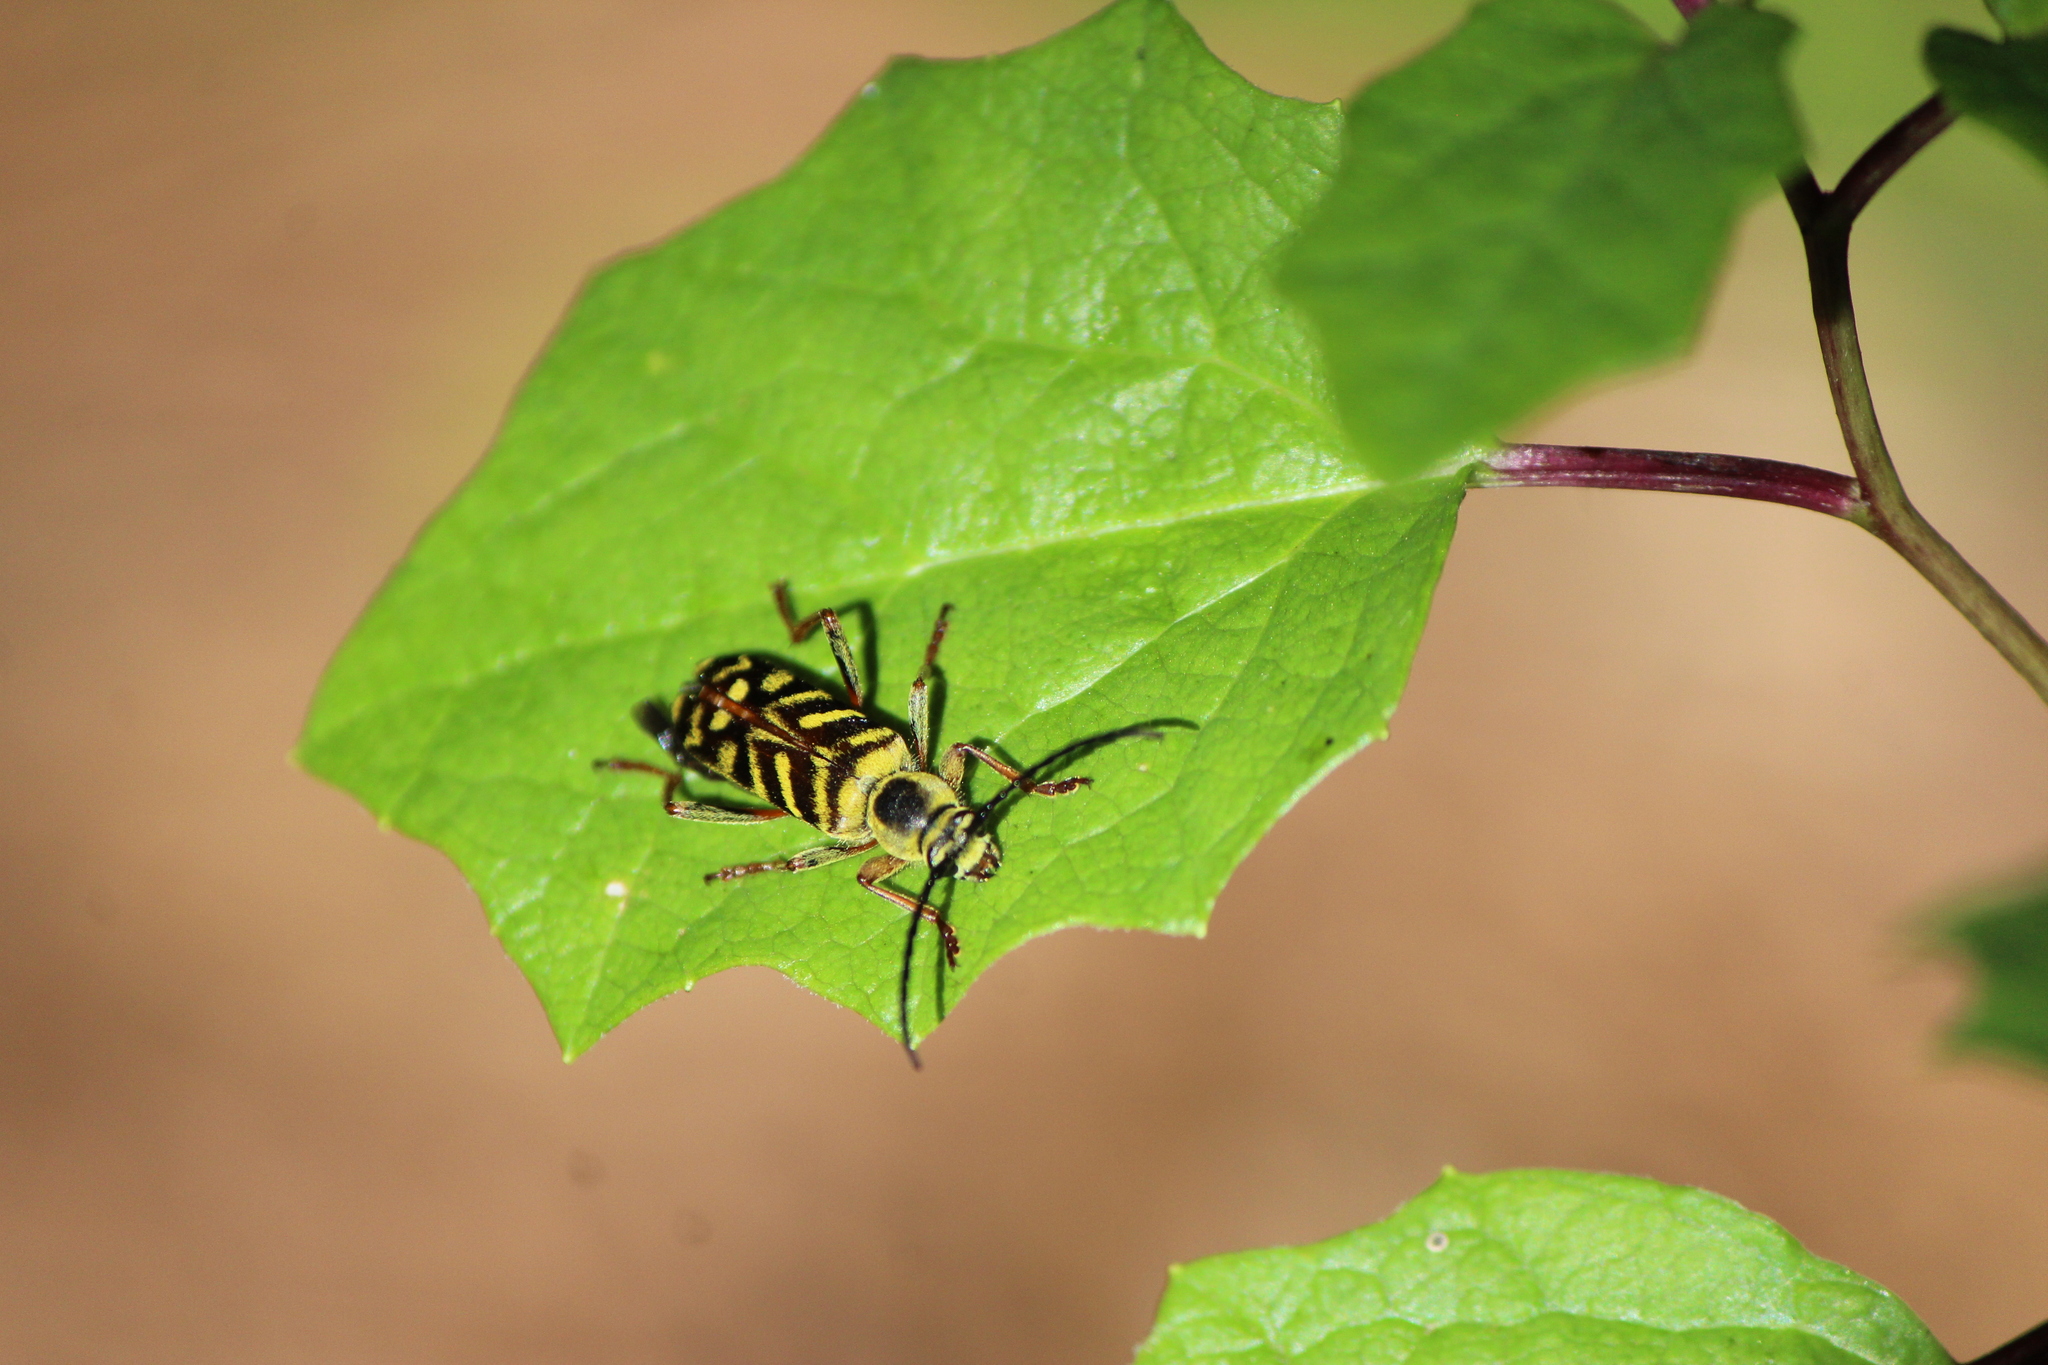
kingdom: Animalia
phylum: Arthropoda
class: Insecta
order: Coleoptera
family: Cerambycidae
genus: Ochraethes
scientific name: Ochraethes obliquus
